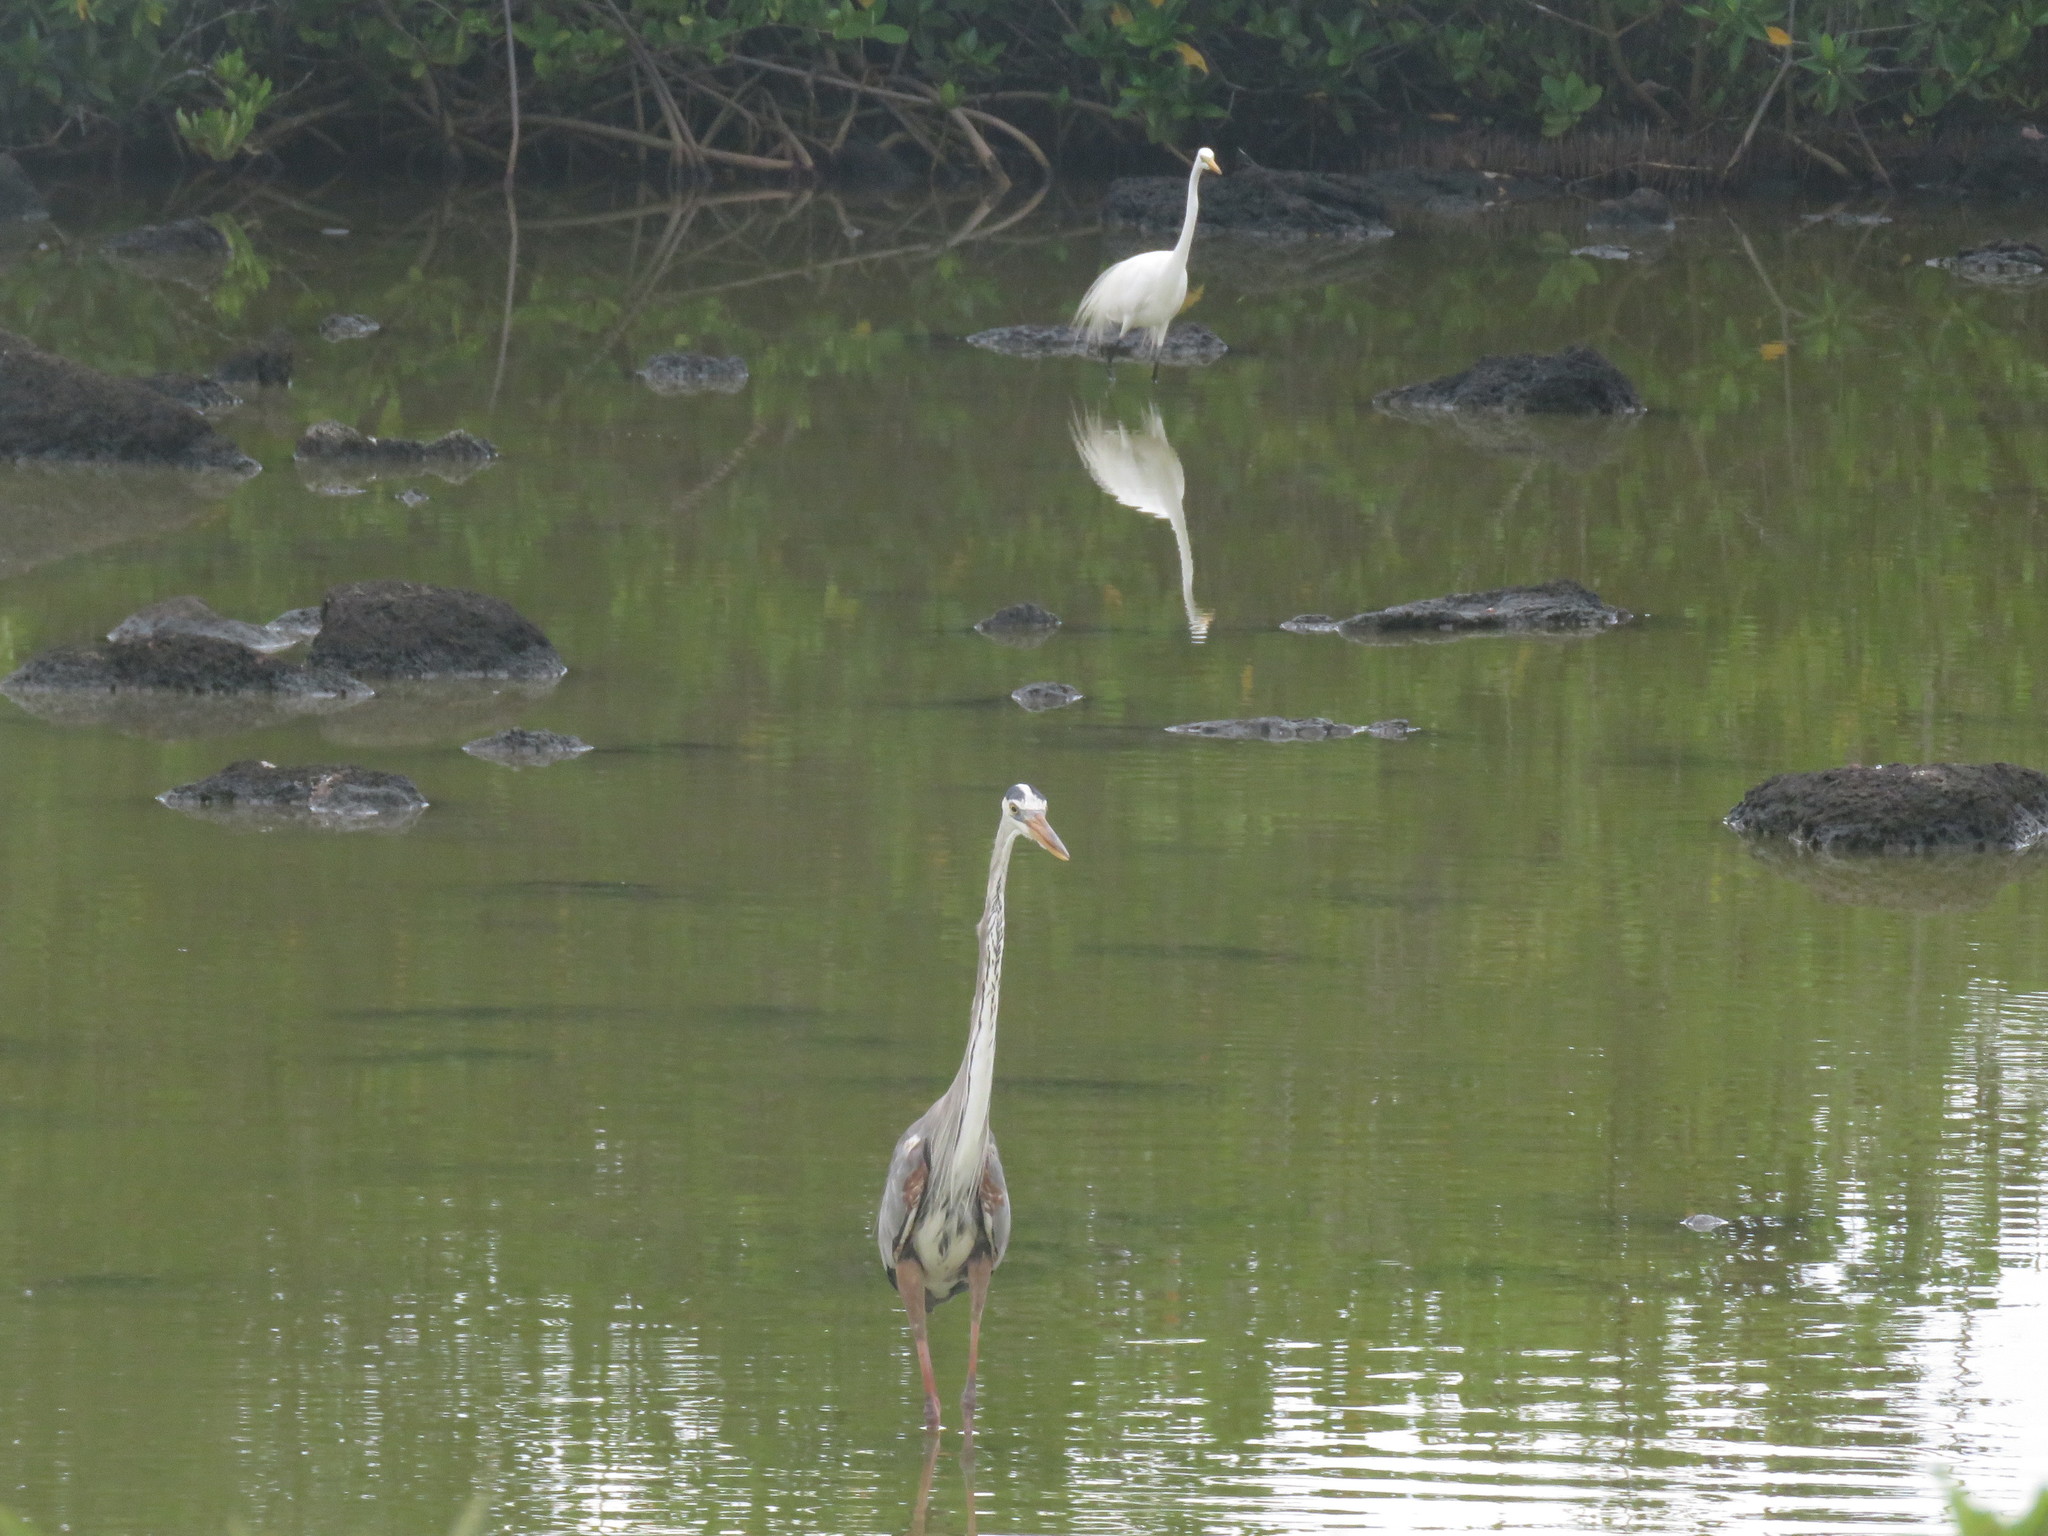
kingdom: Animalia
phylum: Chordata
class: Aves
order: Pelecaniformes
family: Ardeidae
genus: Ardea
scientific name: Ardea herodias
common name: Great blue heron
